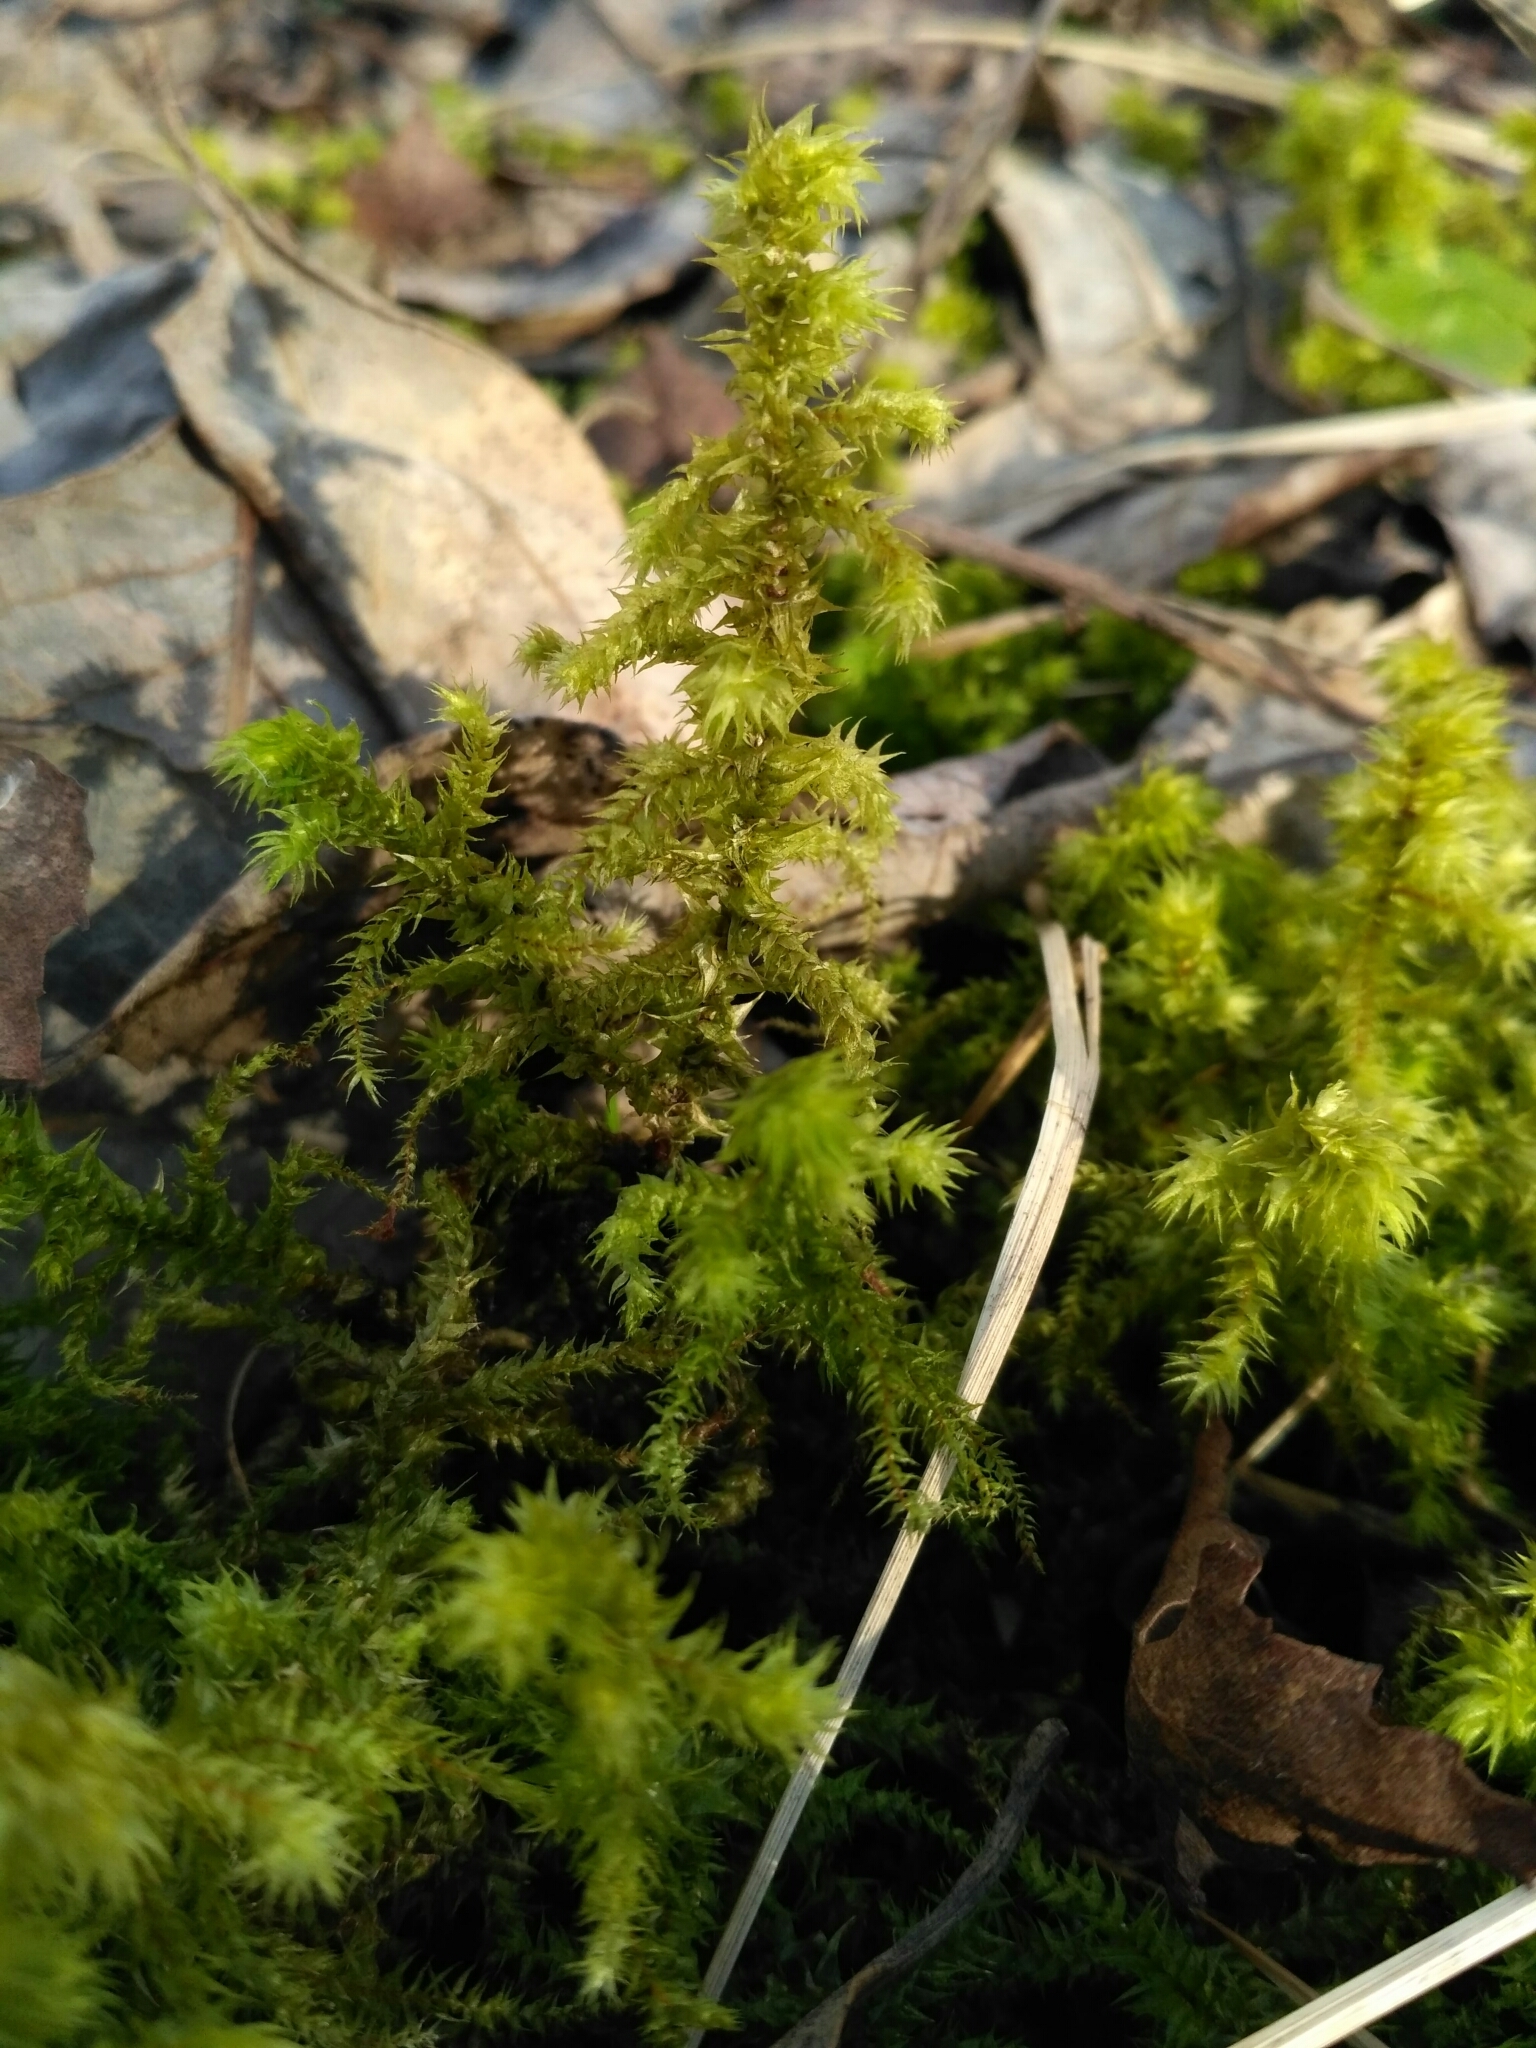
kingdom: Plantae
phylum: Bryophyta
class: Bryopsida
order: Hypnales
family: Hylocomiaceae
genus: Hylocomiadelphus
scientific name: Hylocomiadelphus triquetrus
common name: Rough goose neck moss
